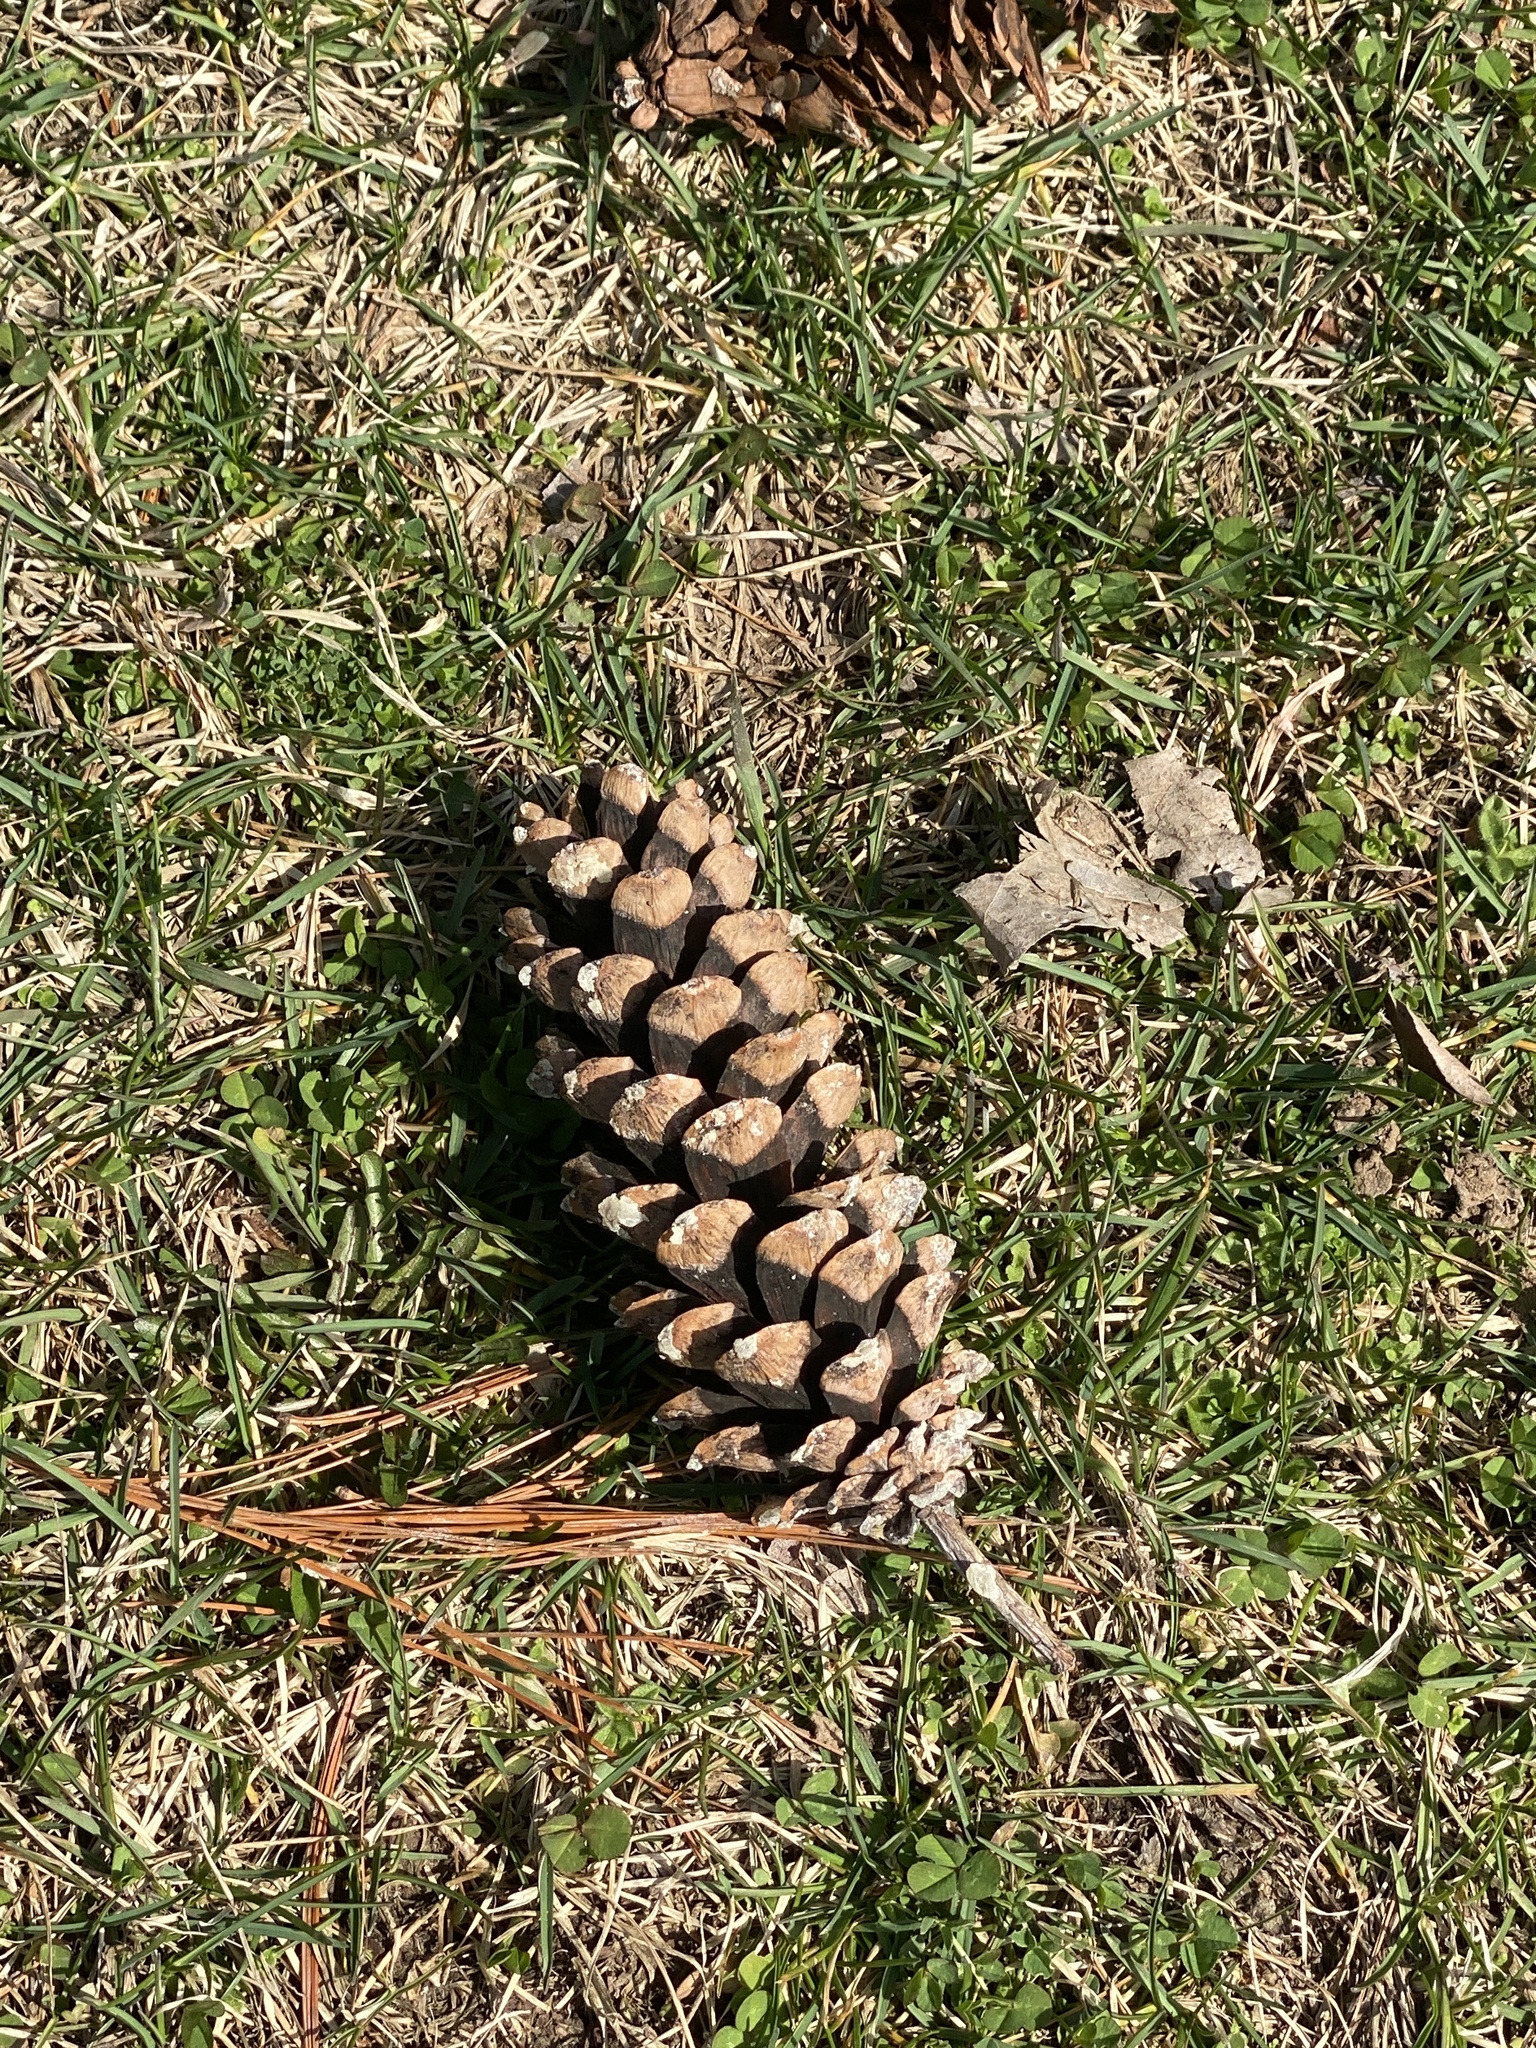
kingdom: Plantae
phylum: Tracheophyta
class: Pinopsida
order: Pinales
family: Pinaceae
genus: Pinus
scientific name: Pinus strobus
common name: Weymouth pine
